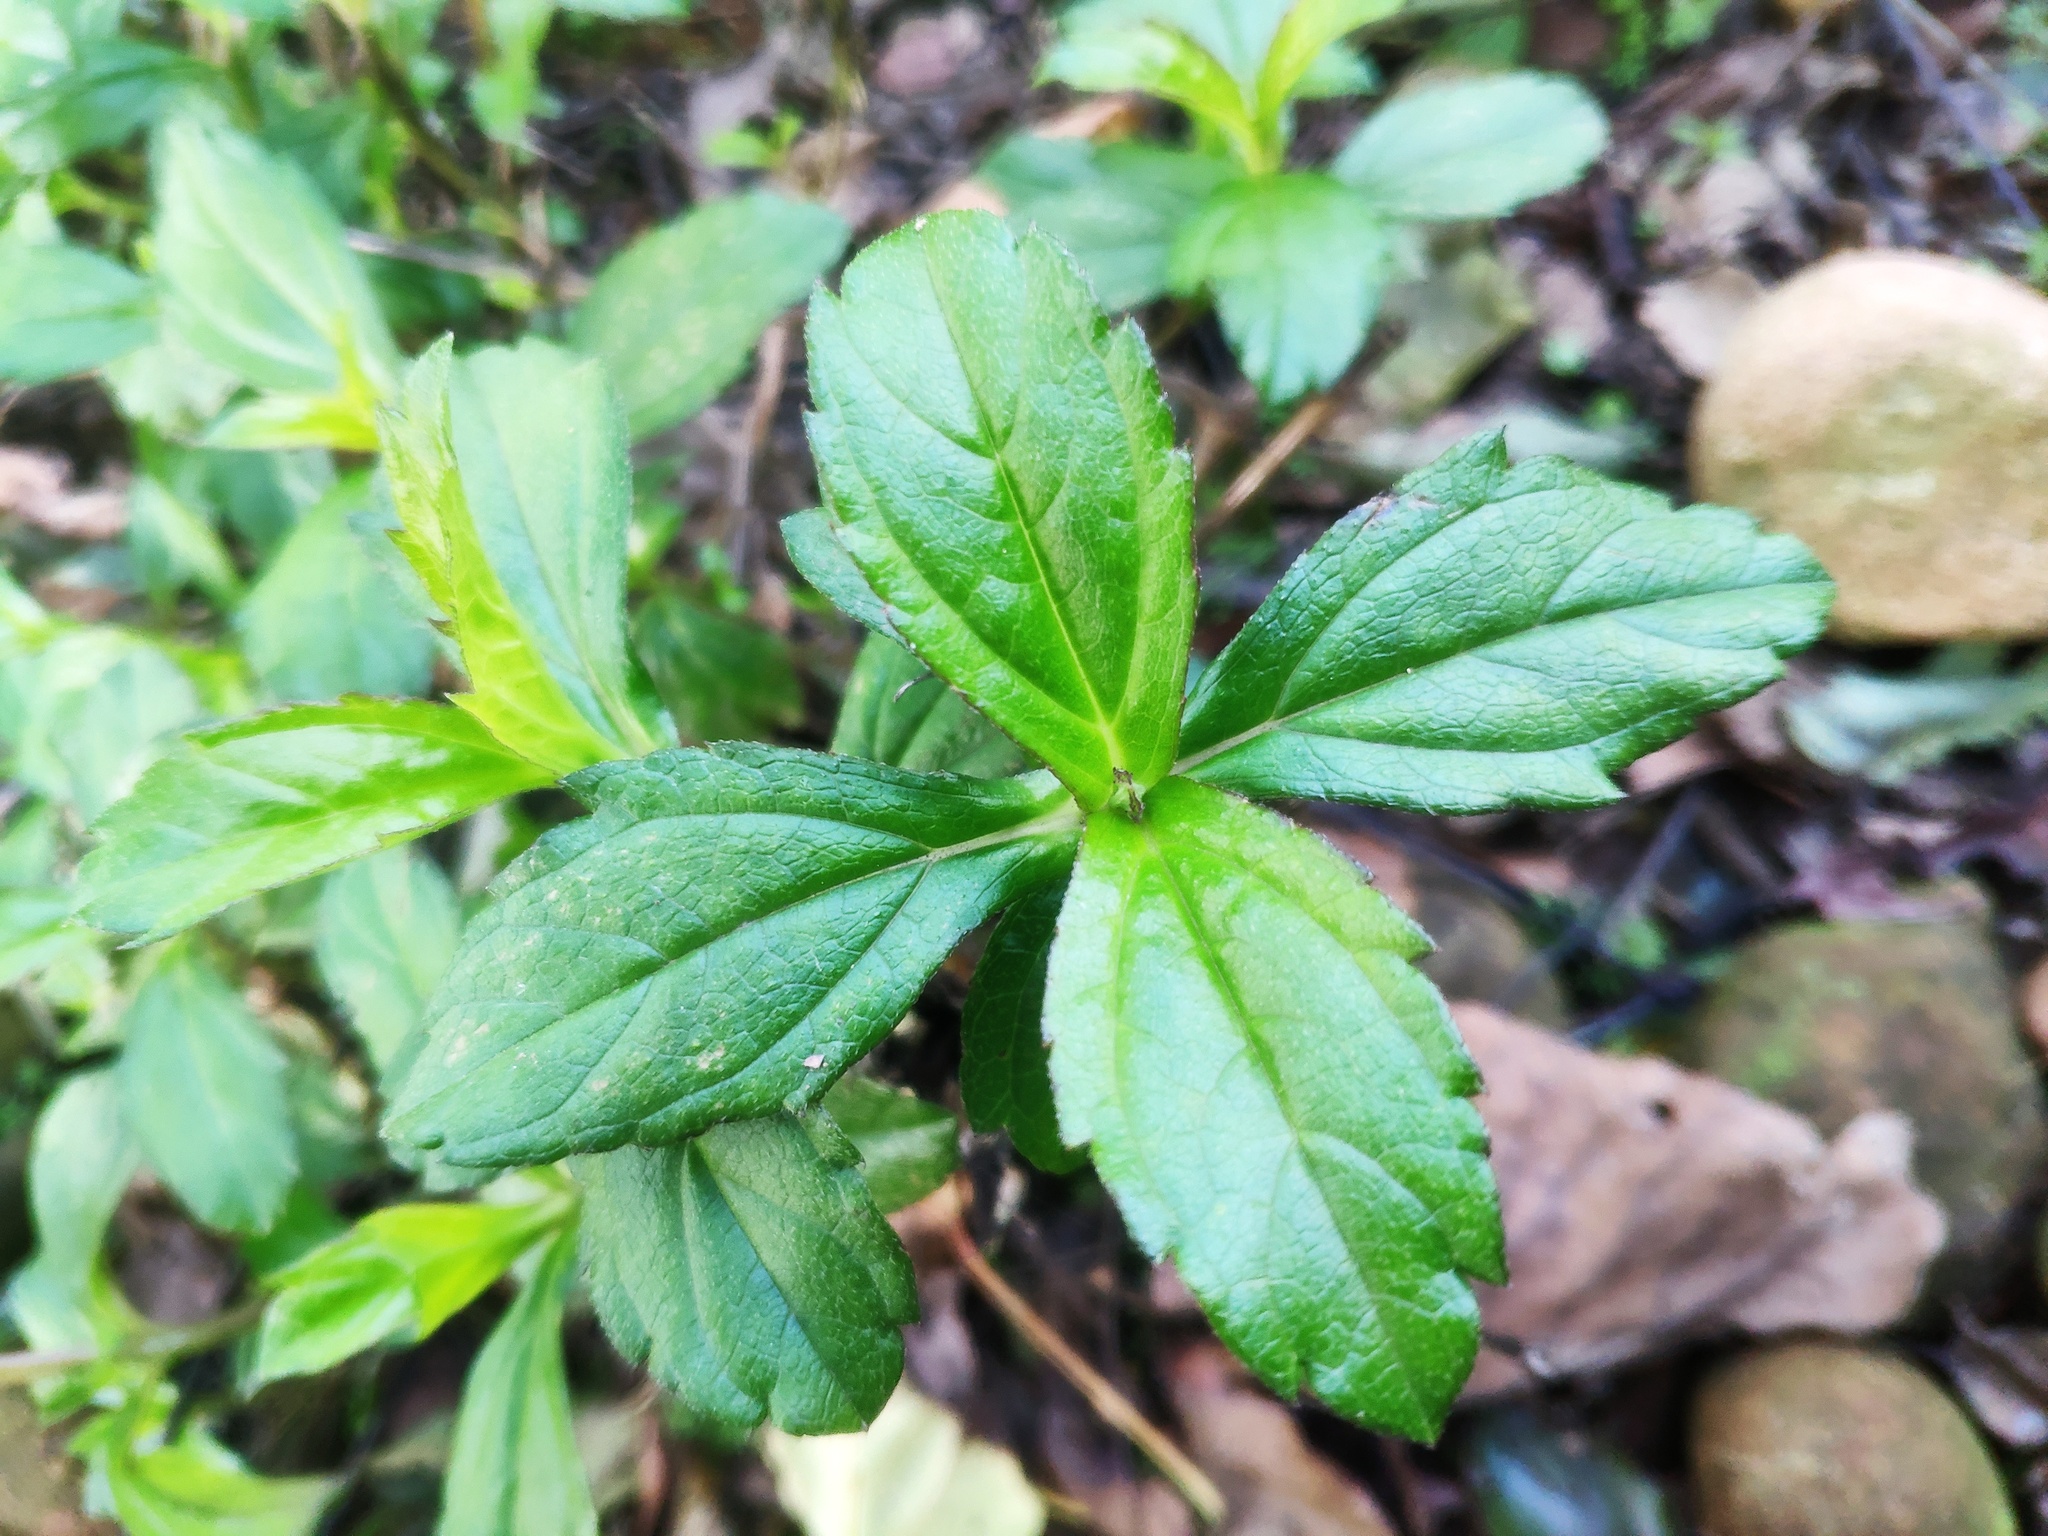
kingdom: Plantae
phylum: Tracheophyta
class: Magnoliopsida
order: Asterales
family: Asteraceae
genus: Sphagneticola
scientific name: Sphagneticola trilobata
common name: Bay biscayne creeping-oxeye
